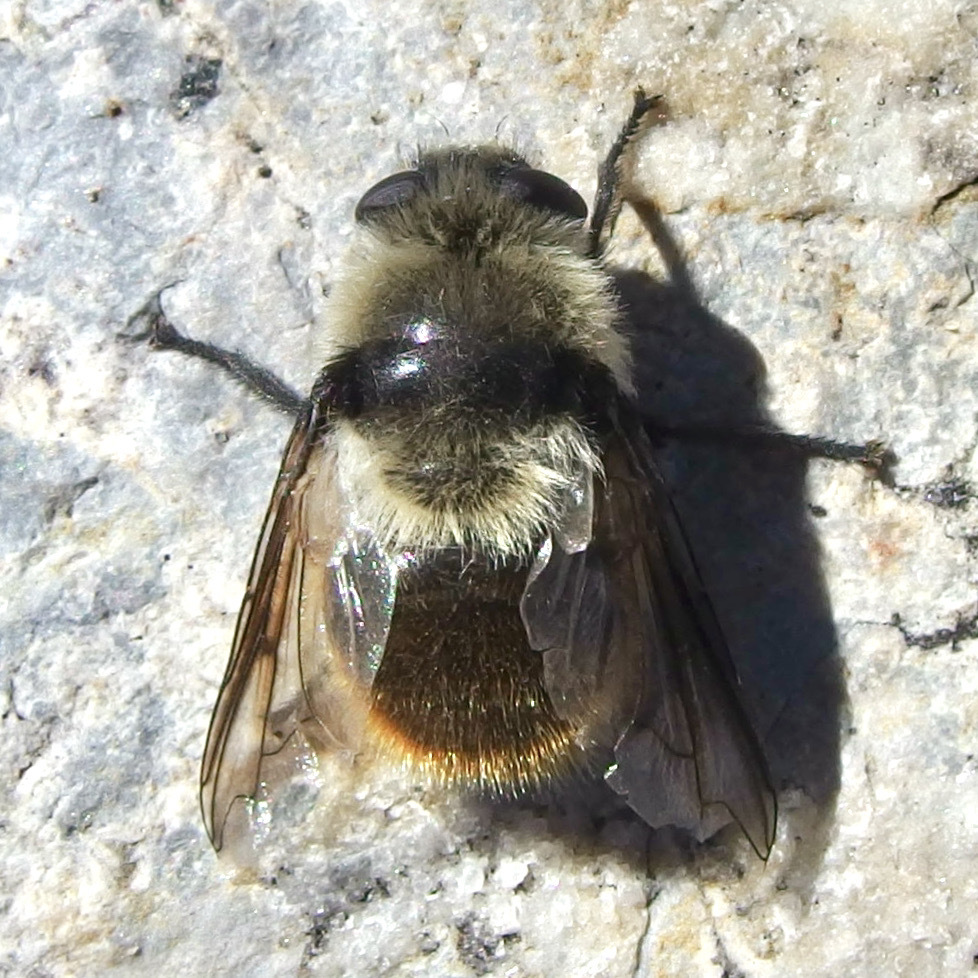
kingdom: Animalia
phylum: Arthropoda
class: Insecta
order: Diptera
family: Oestridae
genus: Cephenemyia
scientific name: Cephenemyia pratti
